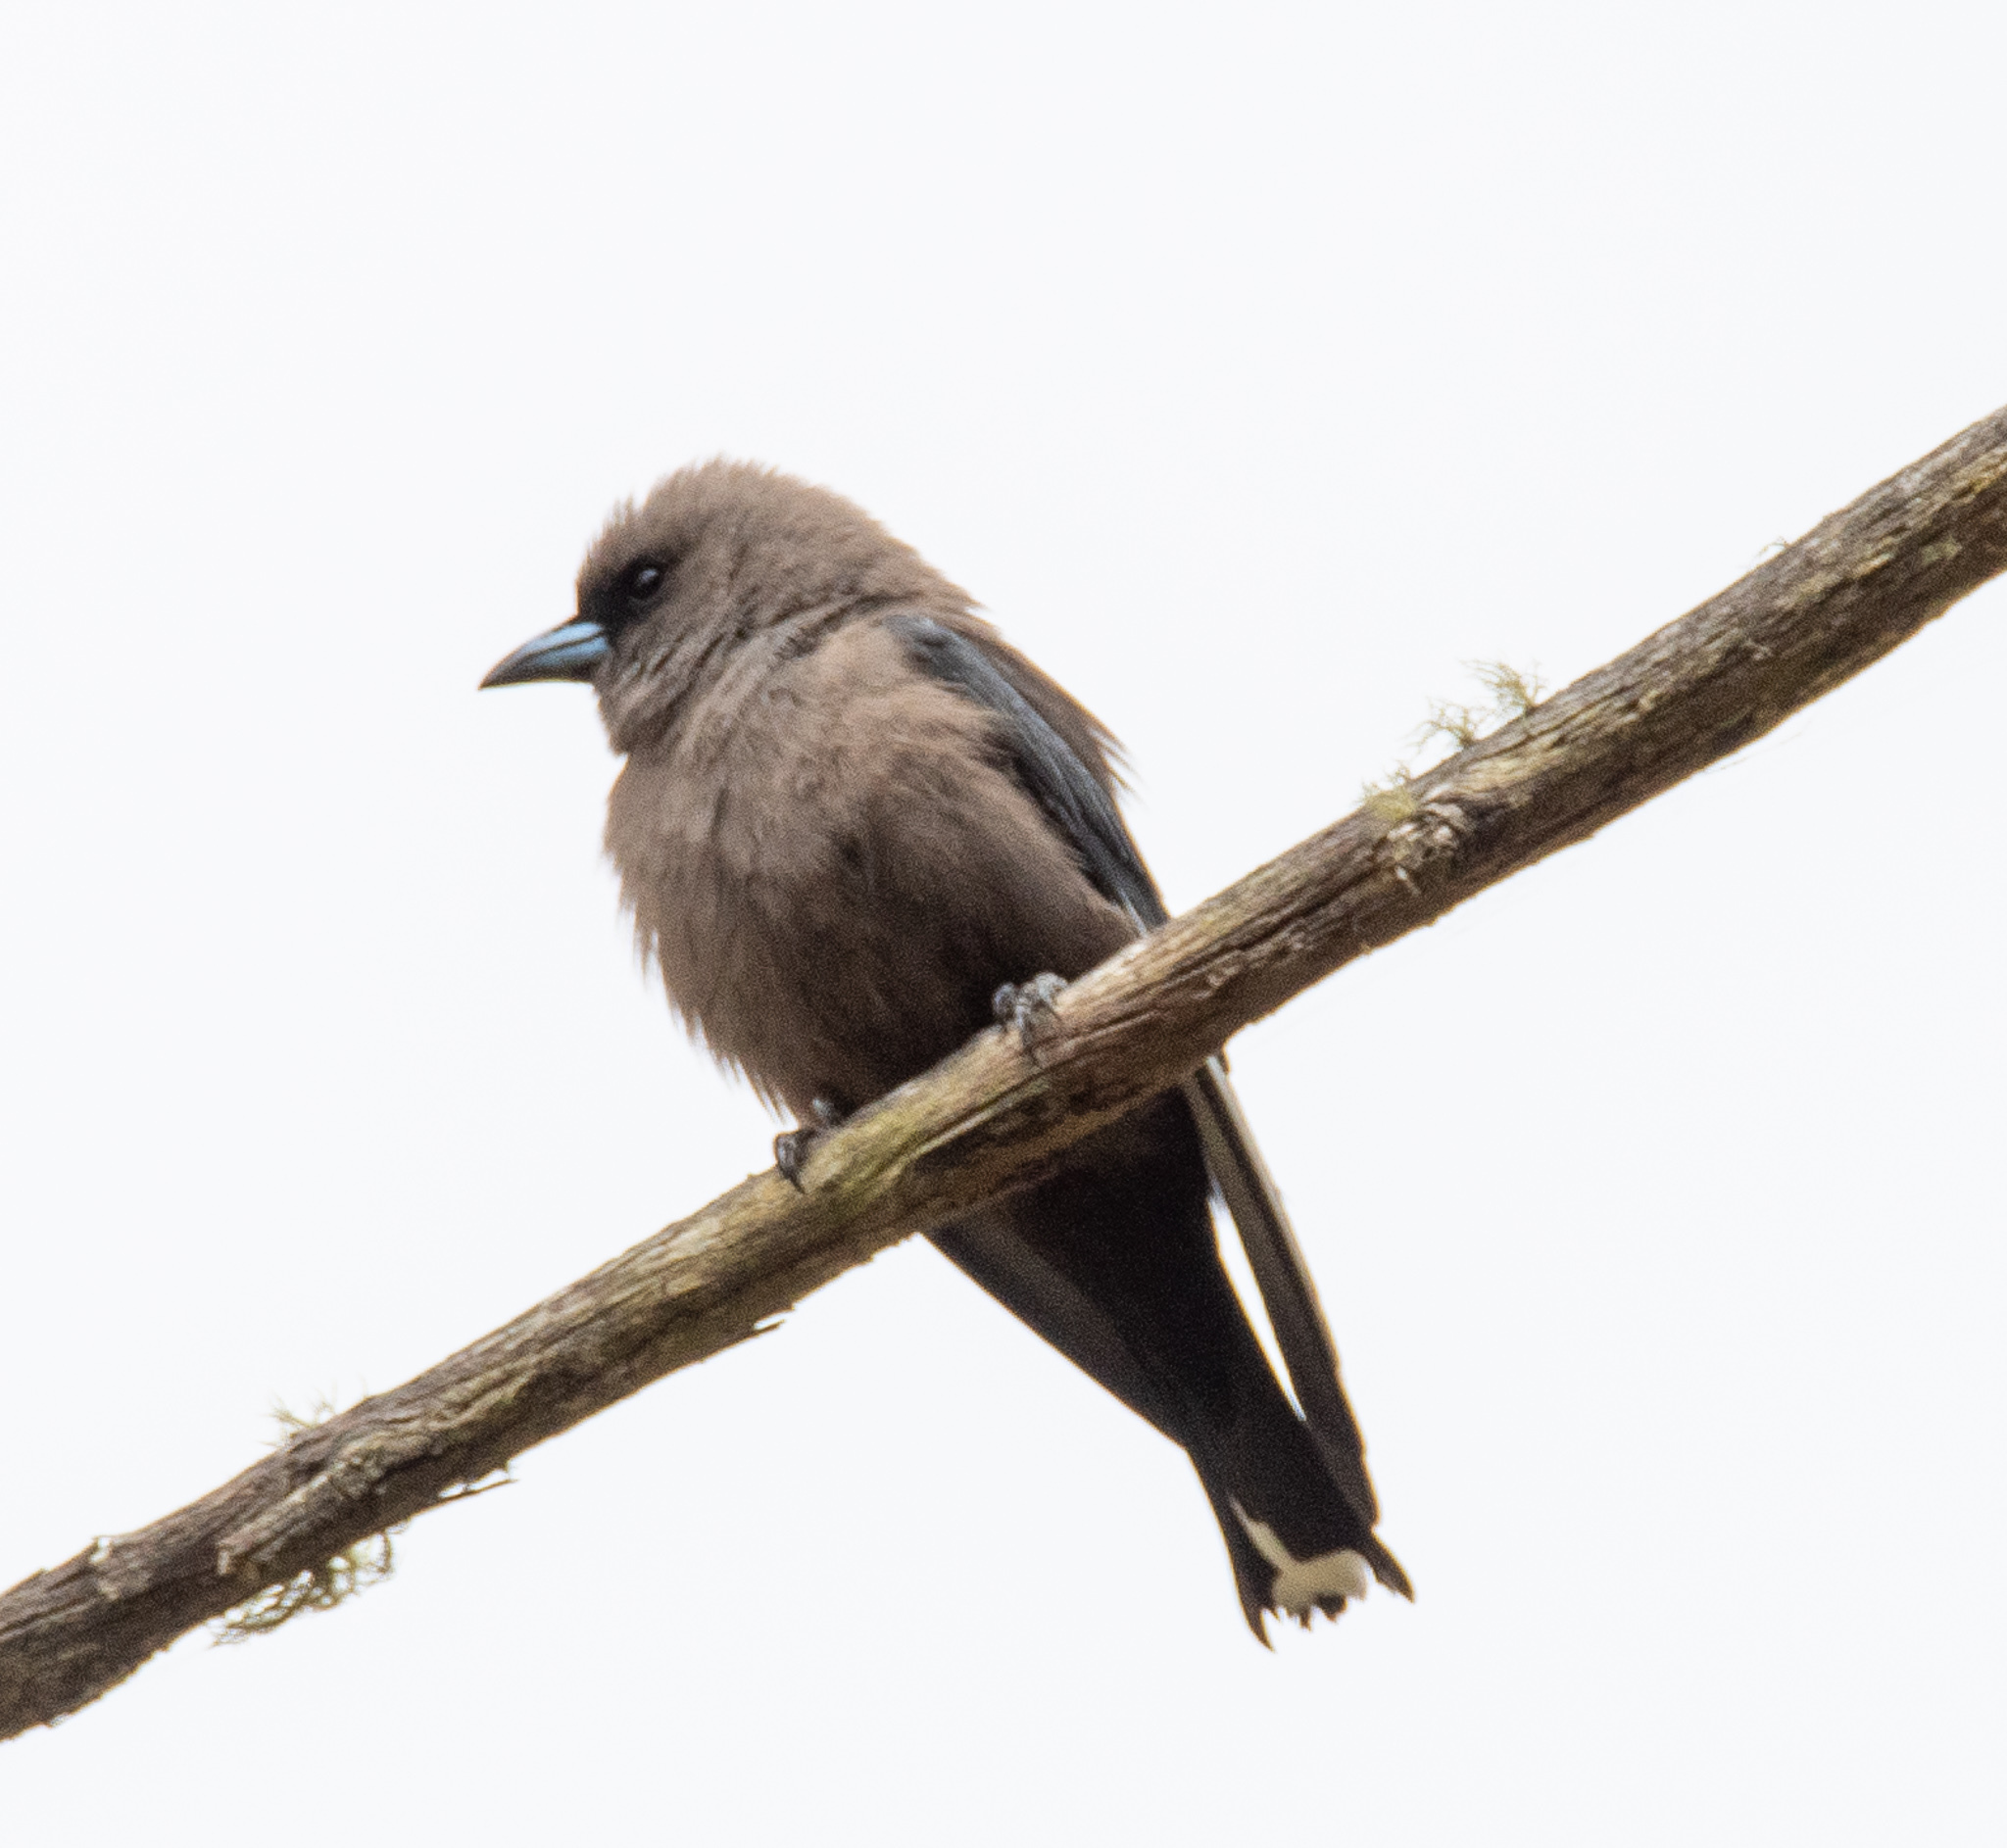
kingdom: Animalia
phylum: Chordata
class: Aves
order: Passeriformes
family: Artamidae
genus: Artamus
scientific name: Artamus cyanopterus
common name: Dusky woodswallow
